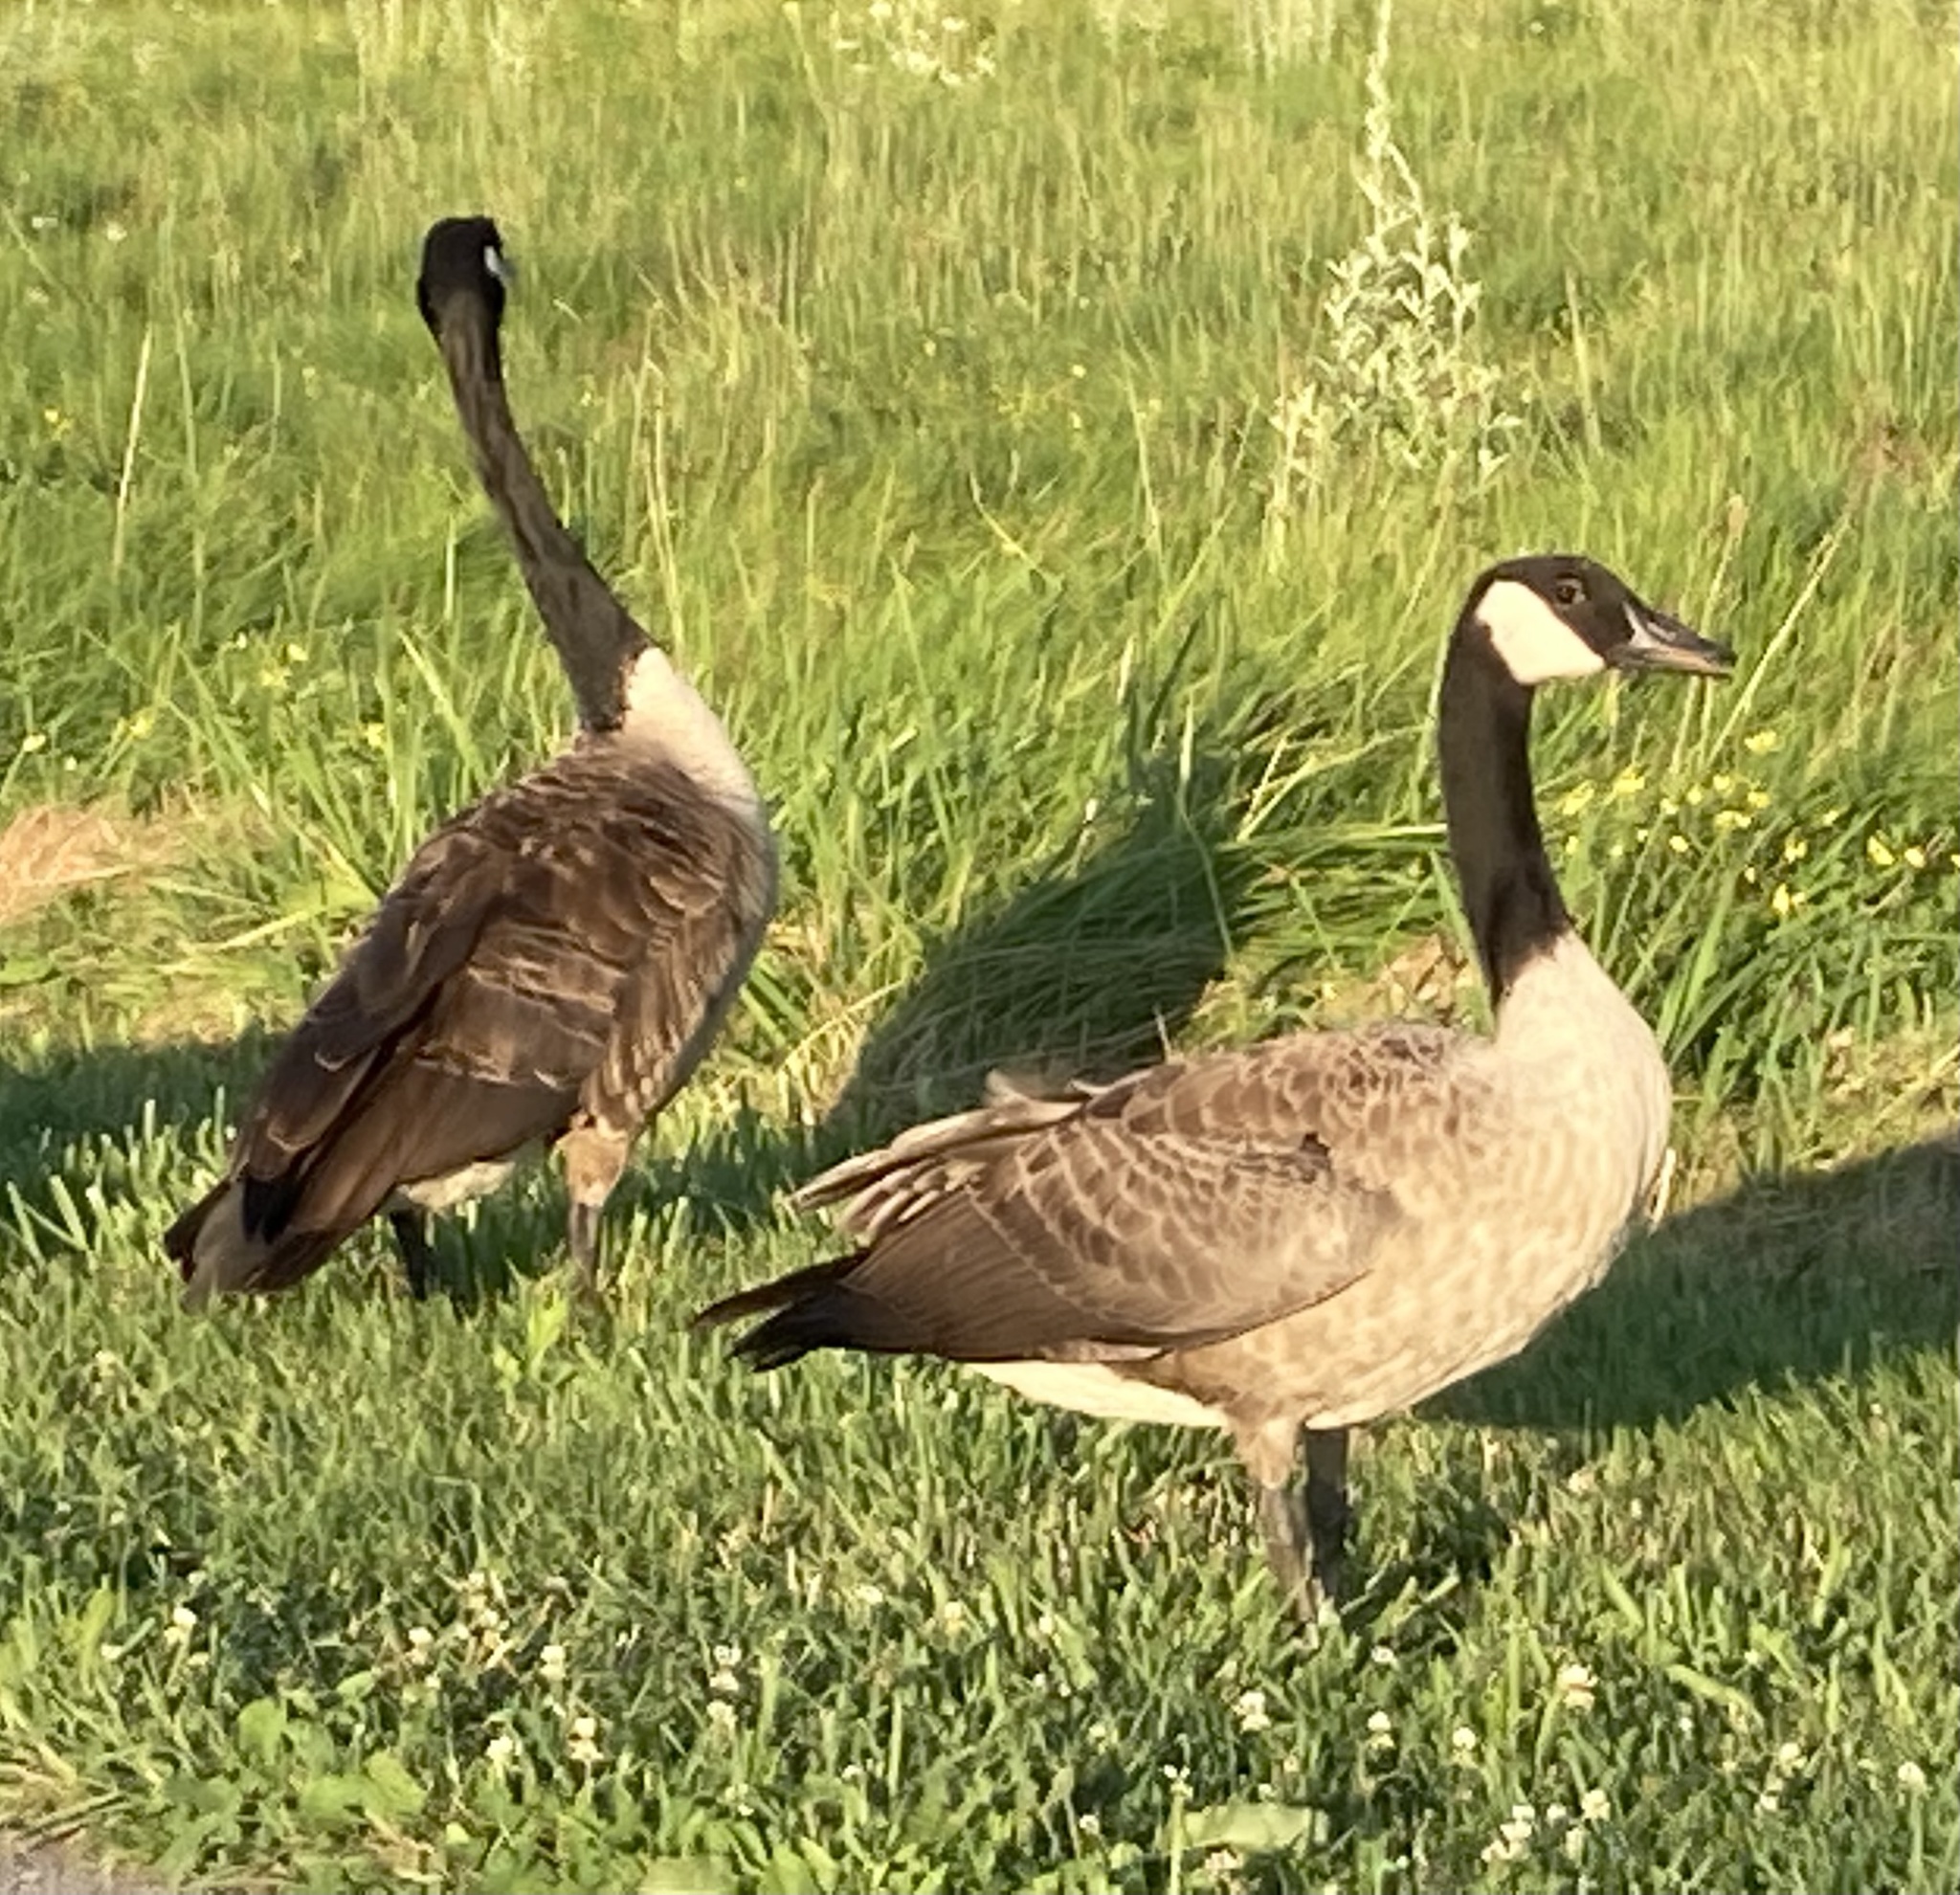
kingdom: Animalia
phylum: Chordata
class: Aves
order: Anseriformes
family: Anatidae
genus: Branta
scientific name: Branta canadensis
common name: Canada goose
